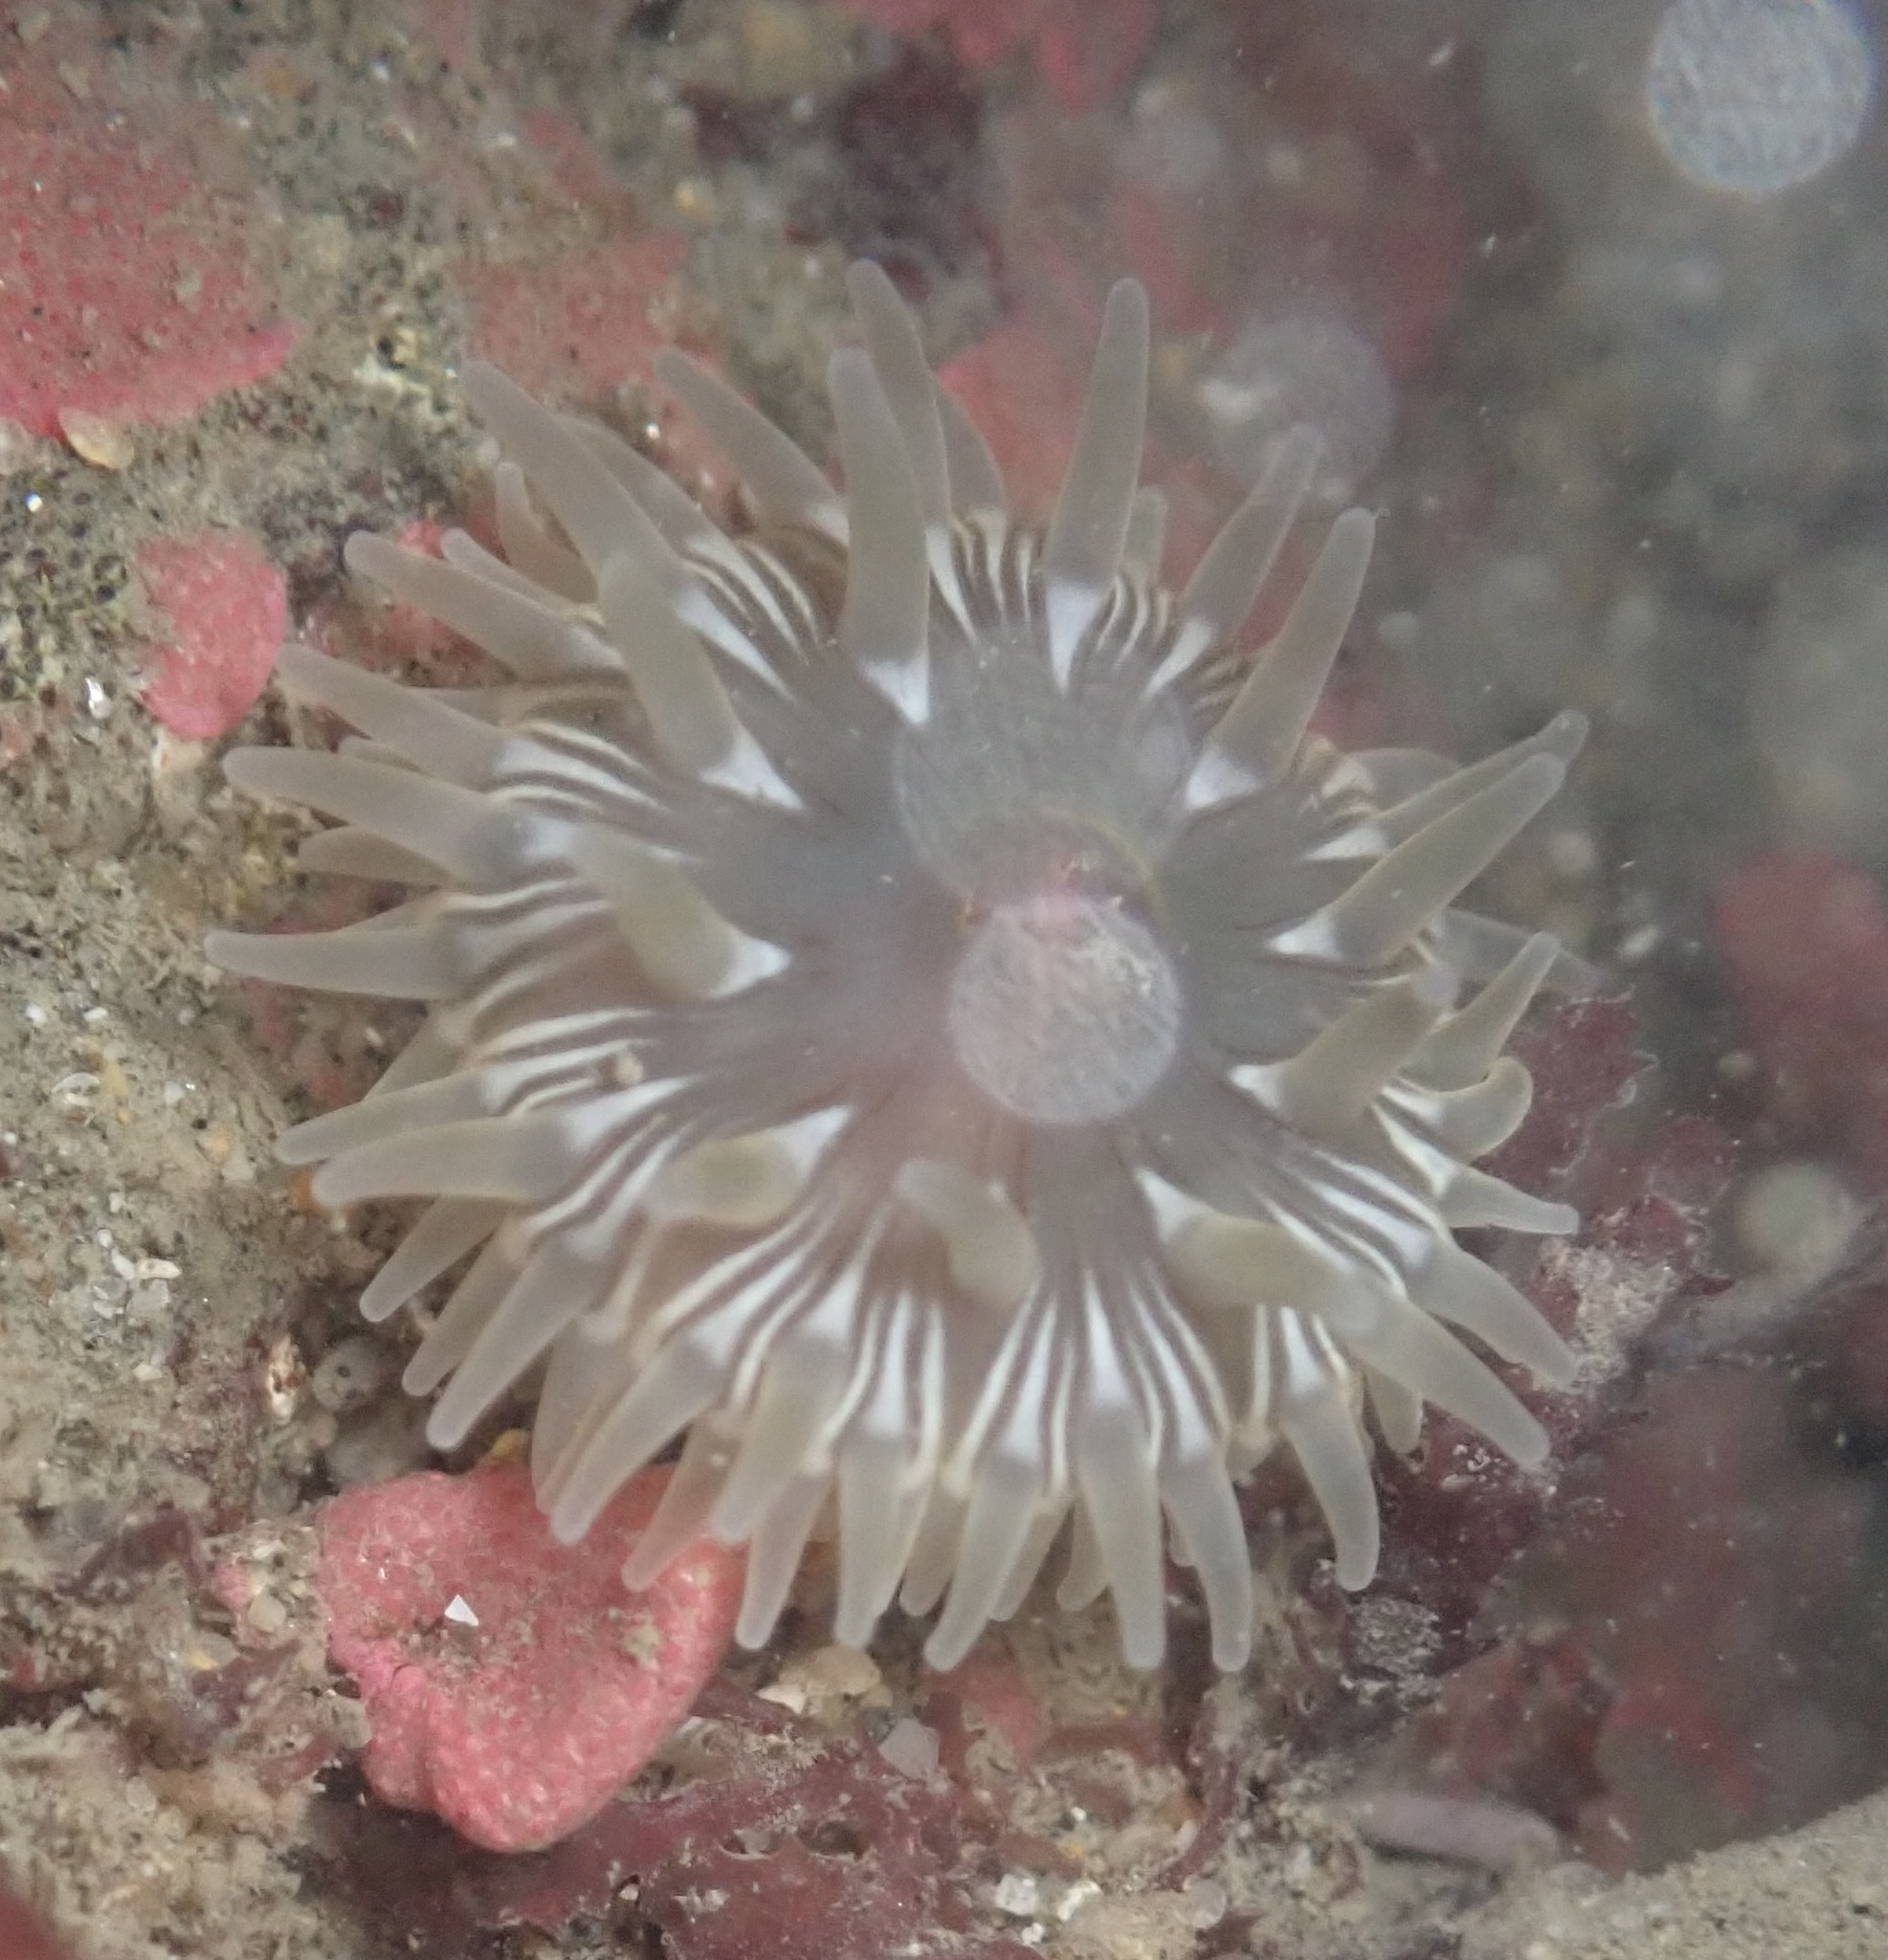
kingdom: Animalia
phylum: Cnidaria
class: Anthozoa
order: Actiniaria
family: Actiniidae
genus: Urticina
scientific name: Urticina clandestina
